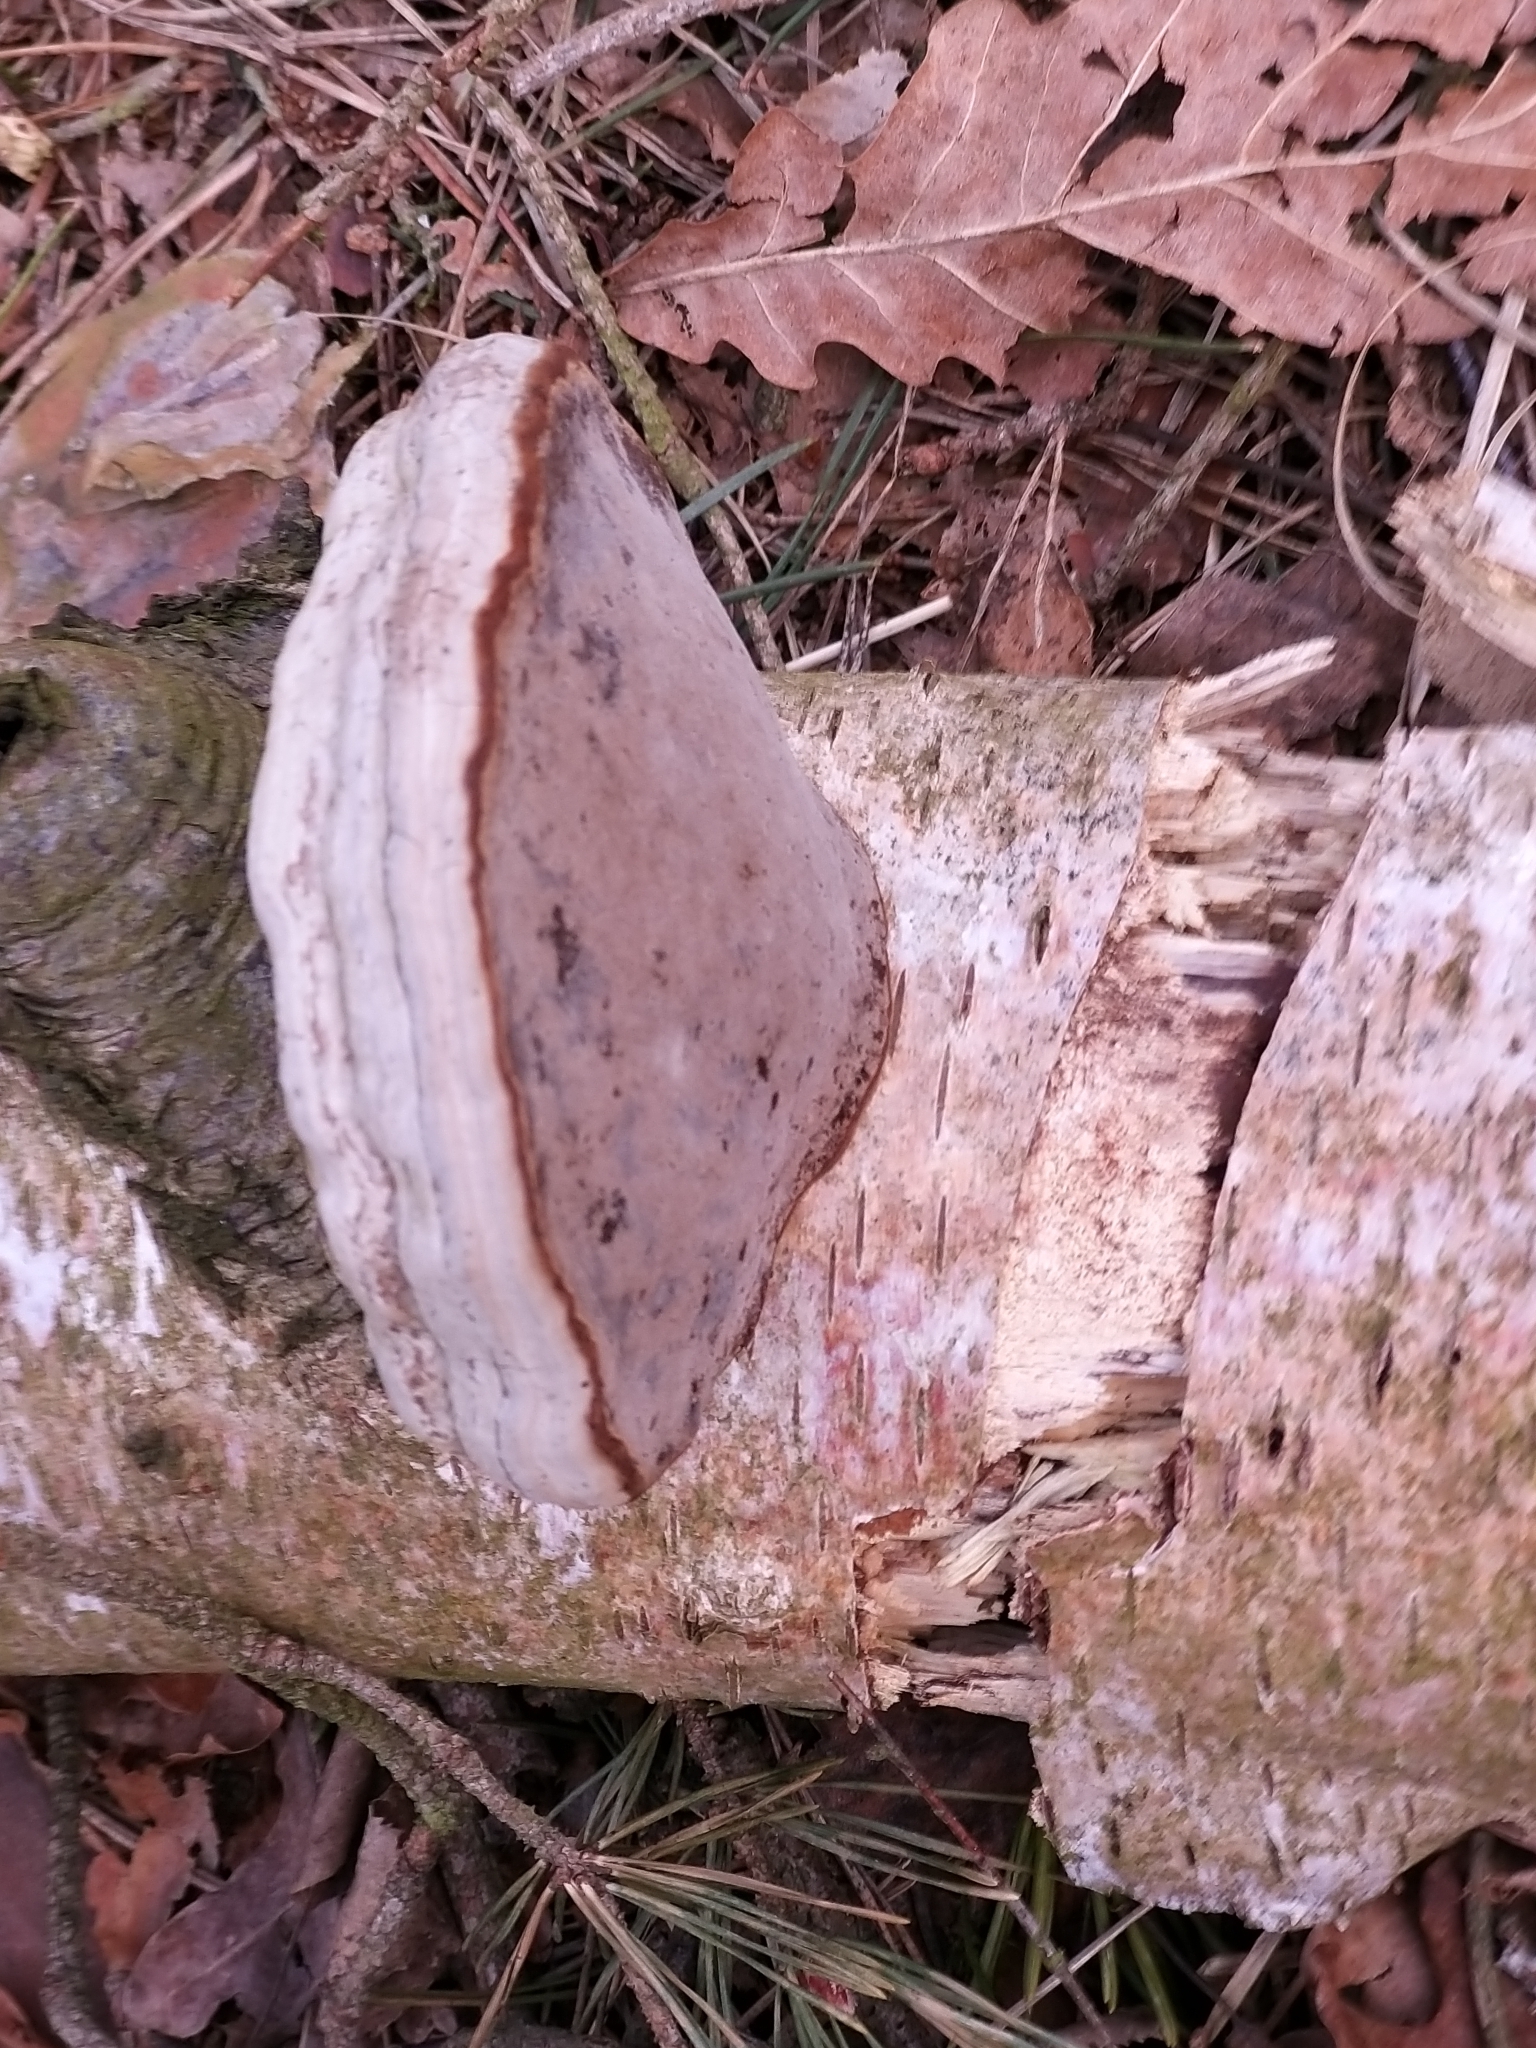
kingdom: Fungi
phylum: Basidiomycota
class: Agaricomycetes
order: Polyporales
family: Polyporaceae
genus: Fomes
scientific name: Fomes fomentarius
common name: Hoof fungus
